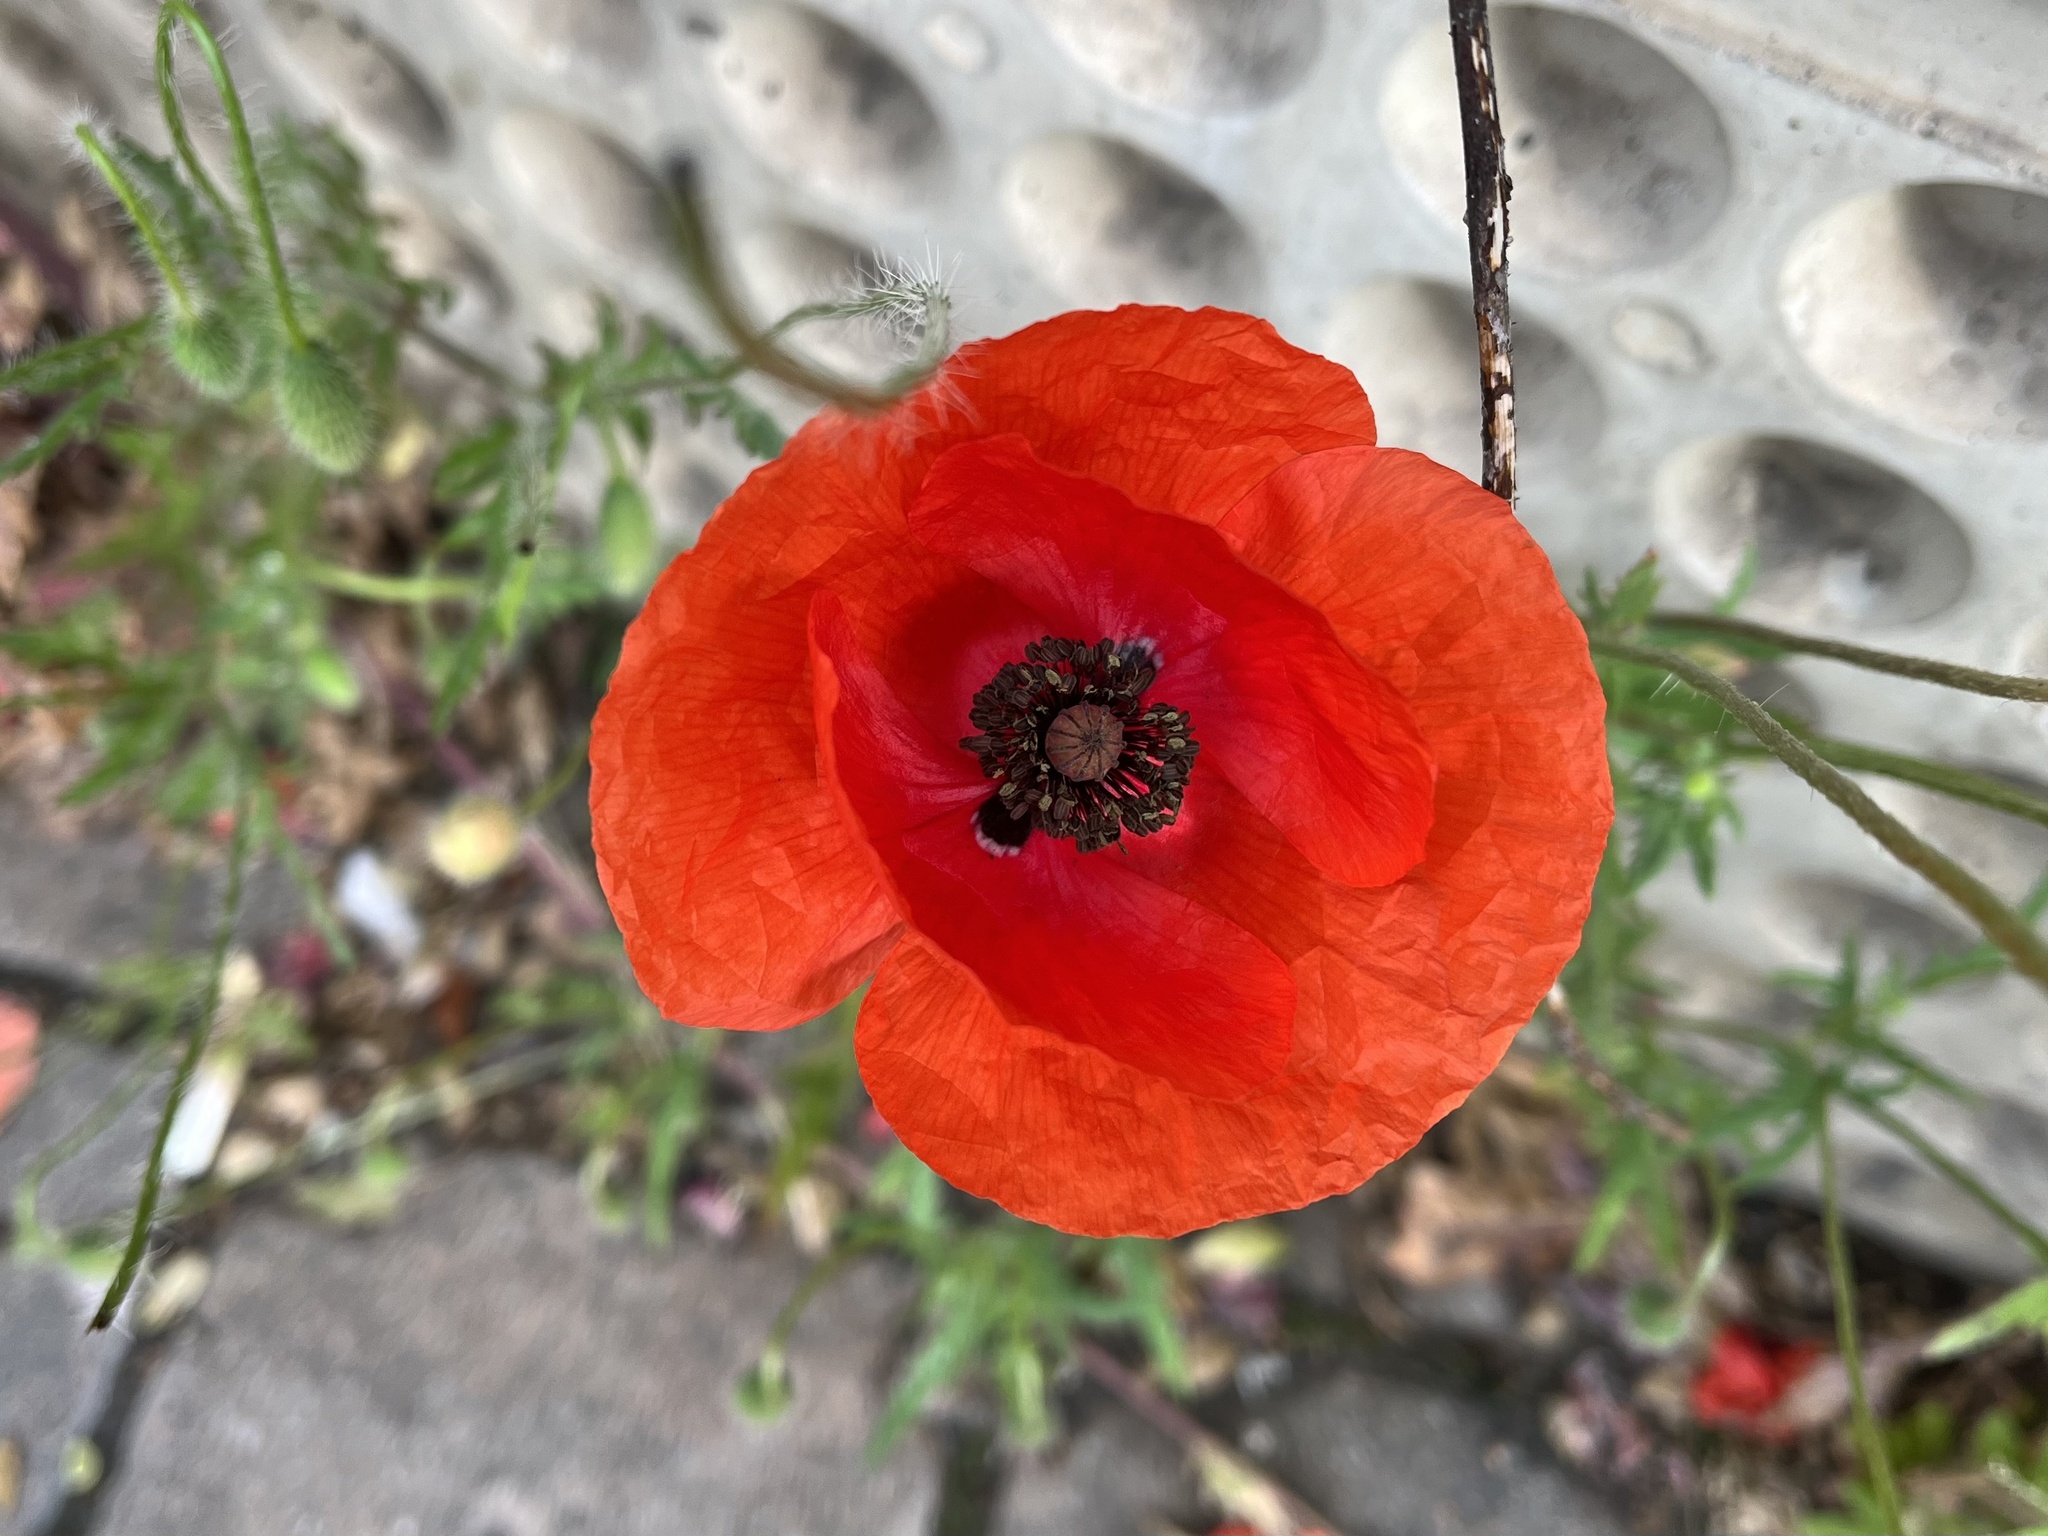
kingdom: Plantae
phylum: Tracheophyta
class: Magnoliopsida
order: Ranunculales
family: Papaveraceae
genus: Papaver
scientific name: Papaver rhoeas
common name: Corn poppy
